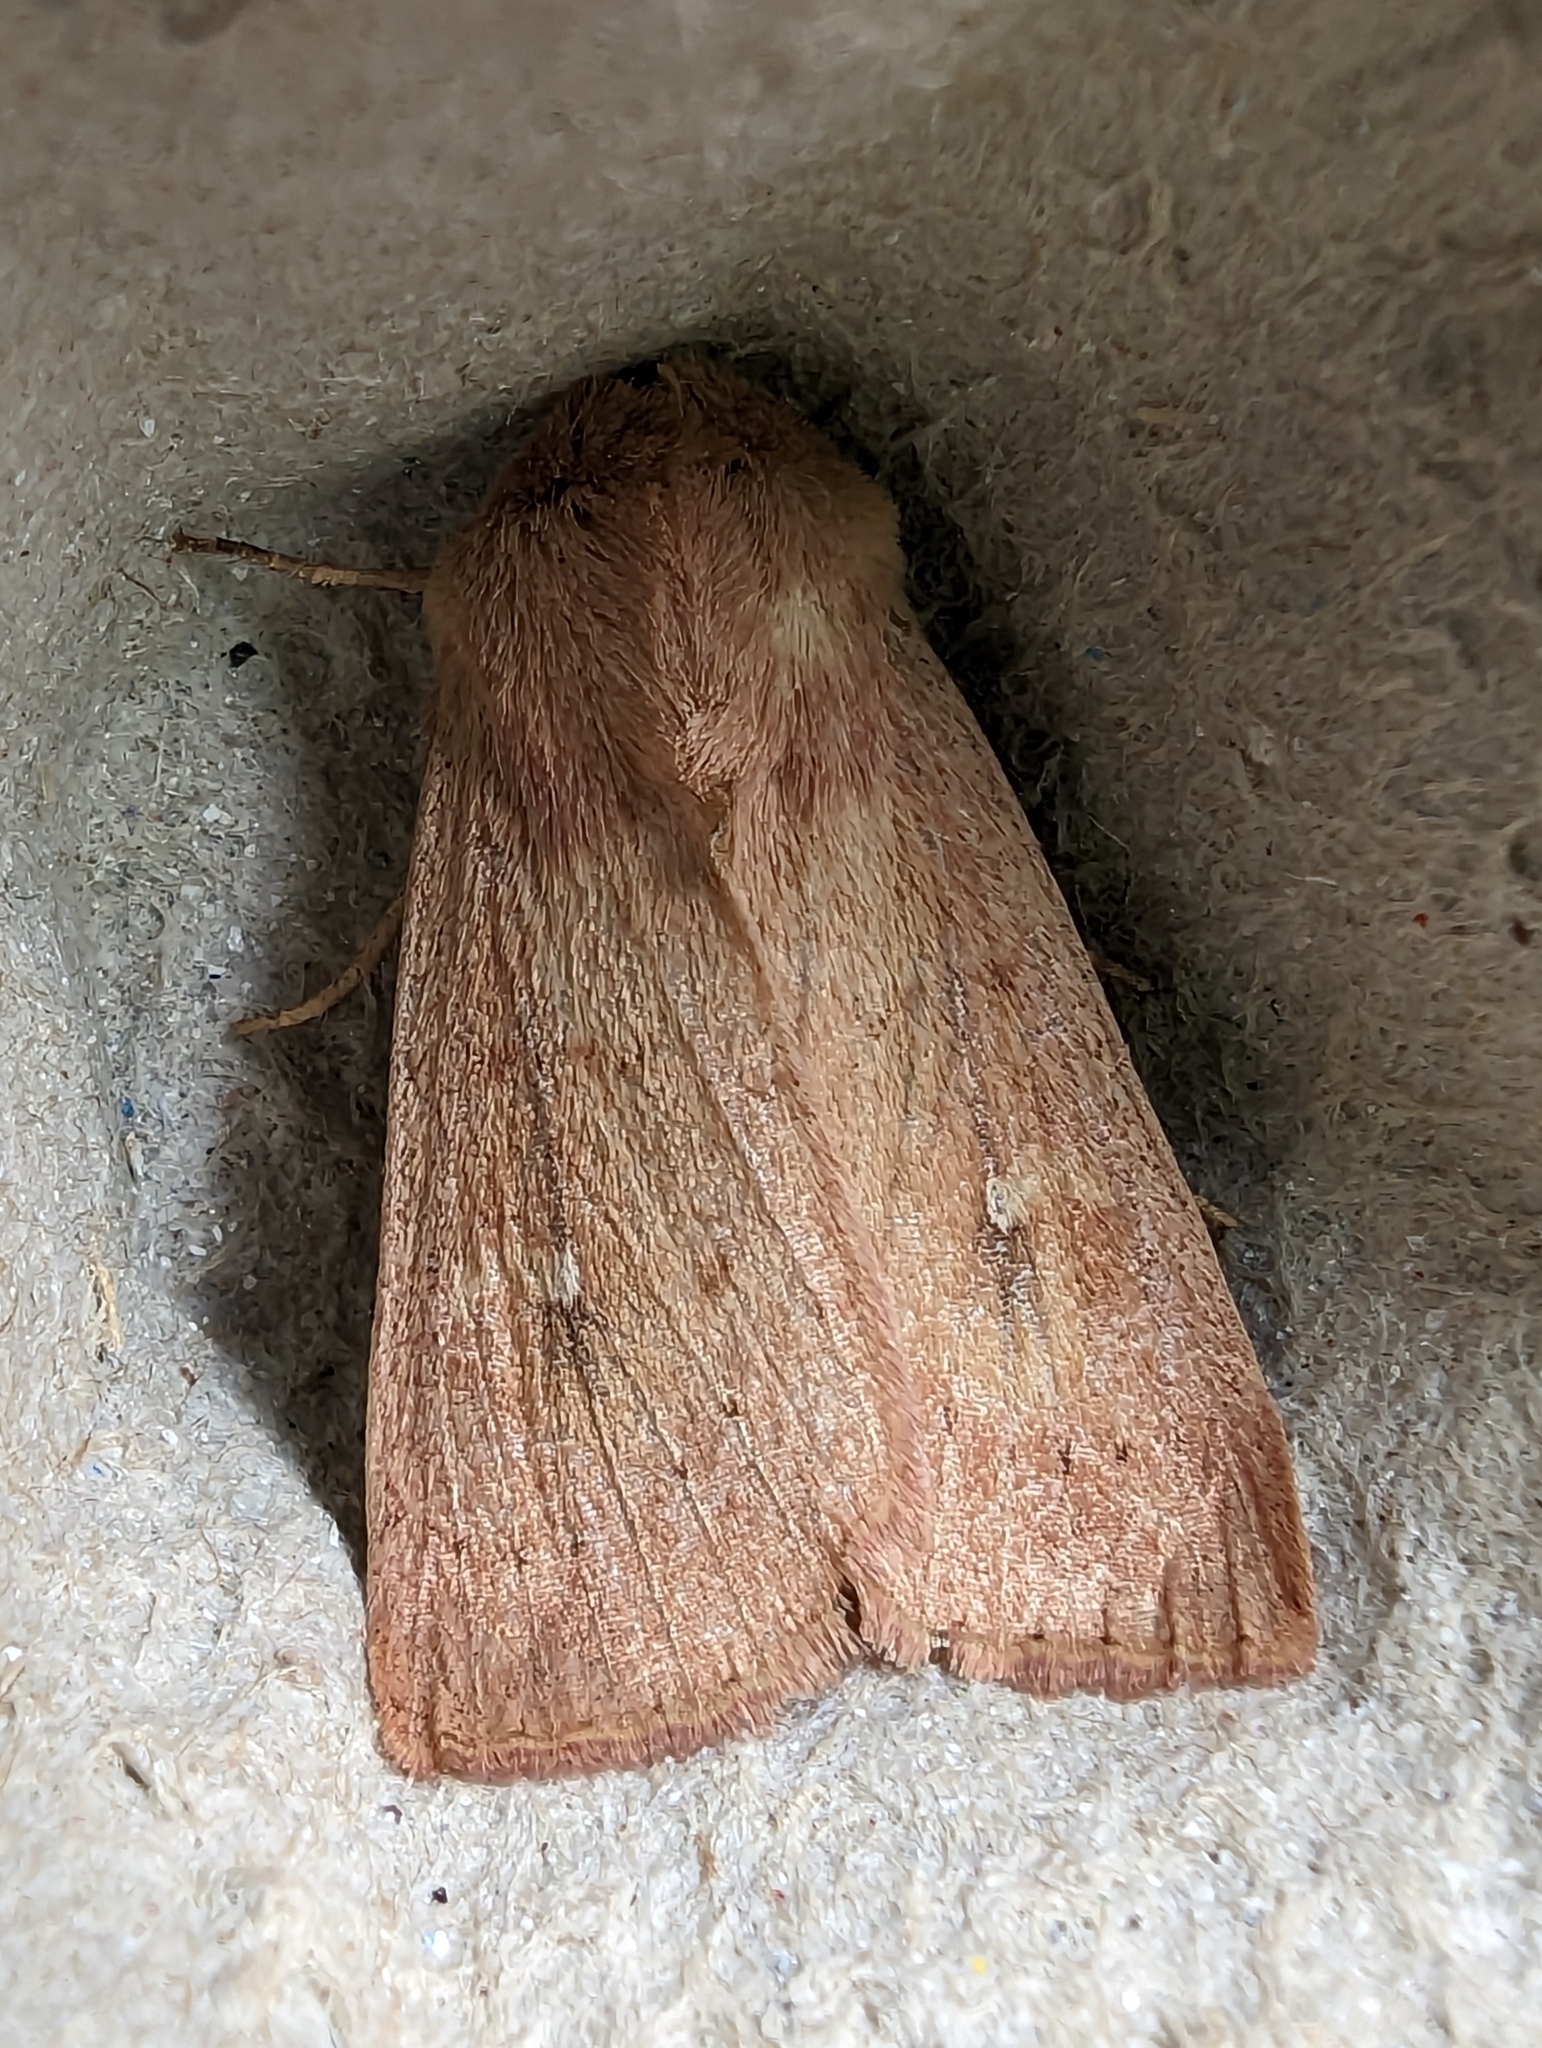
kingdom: Animalia
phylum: Arthropoda
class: Insecta
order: Lepidoptera
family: Noctuidae
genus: Mythimna
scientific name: Mythimna ferrago
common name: Clay
